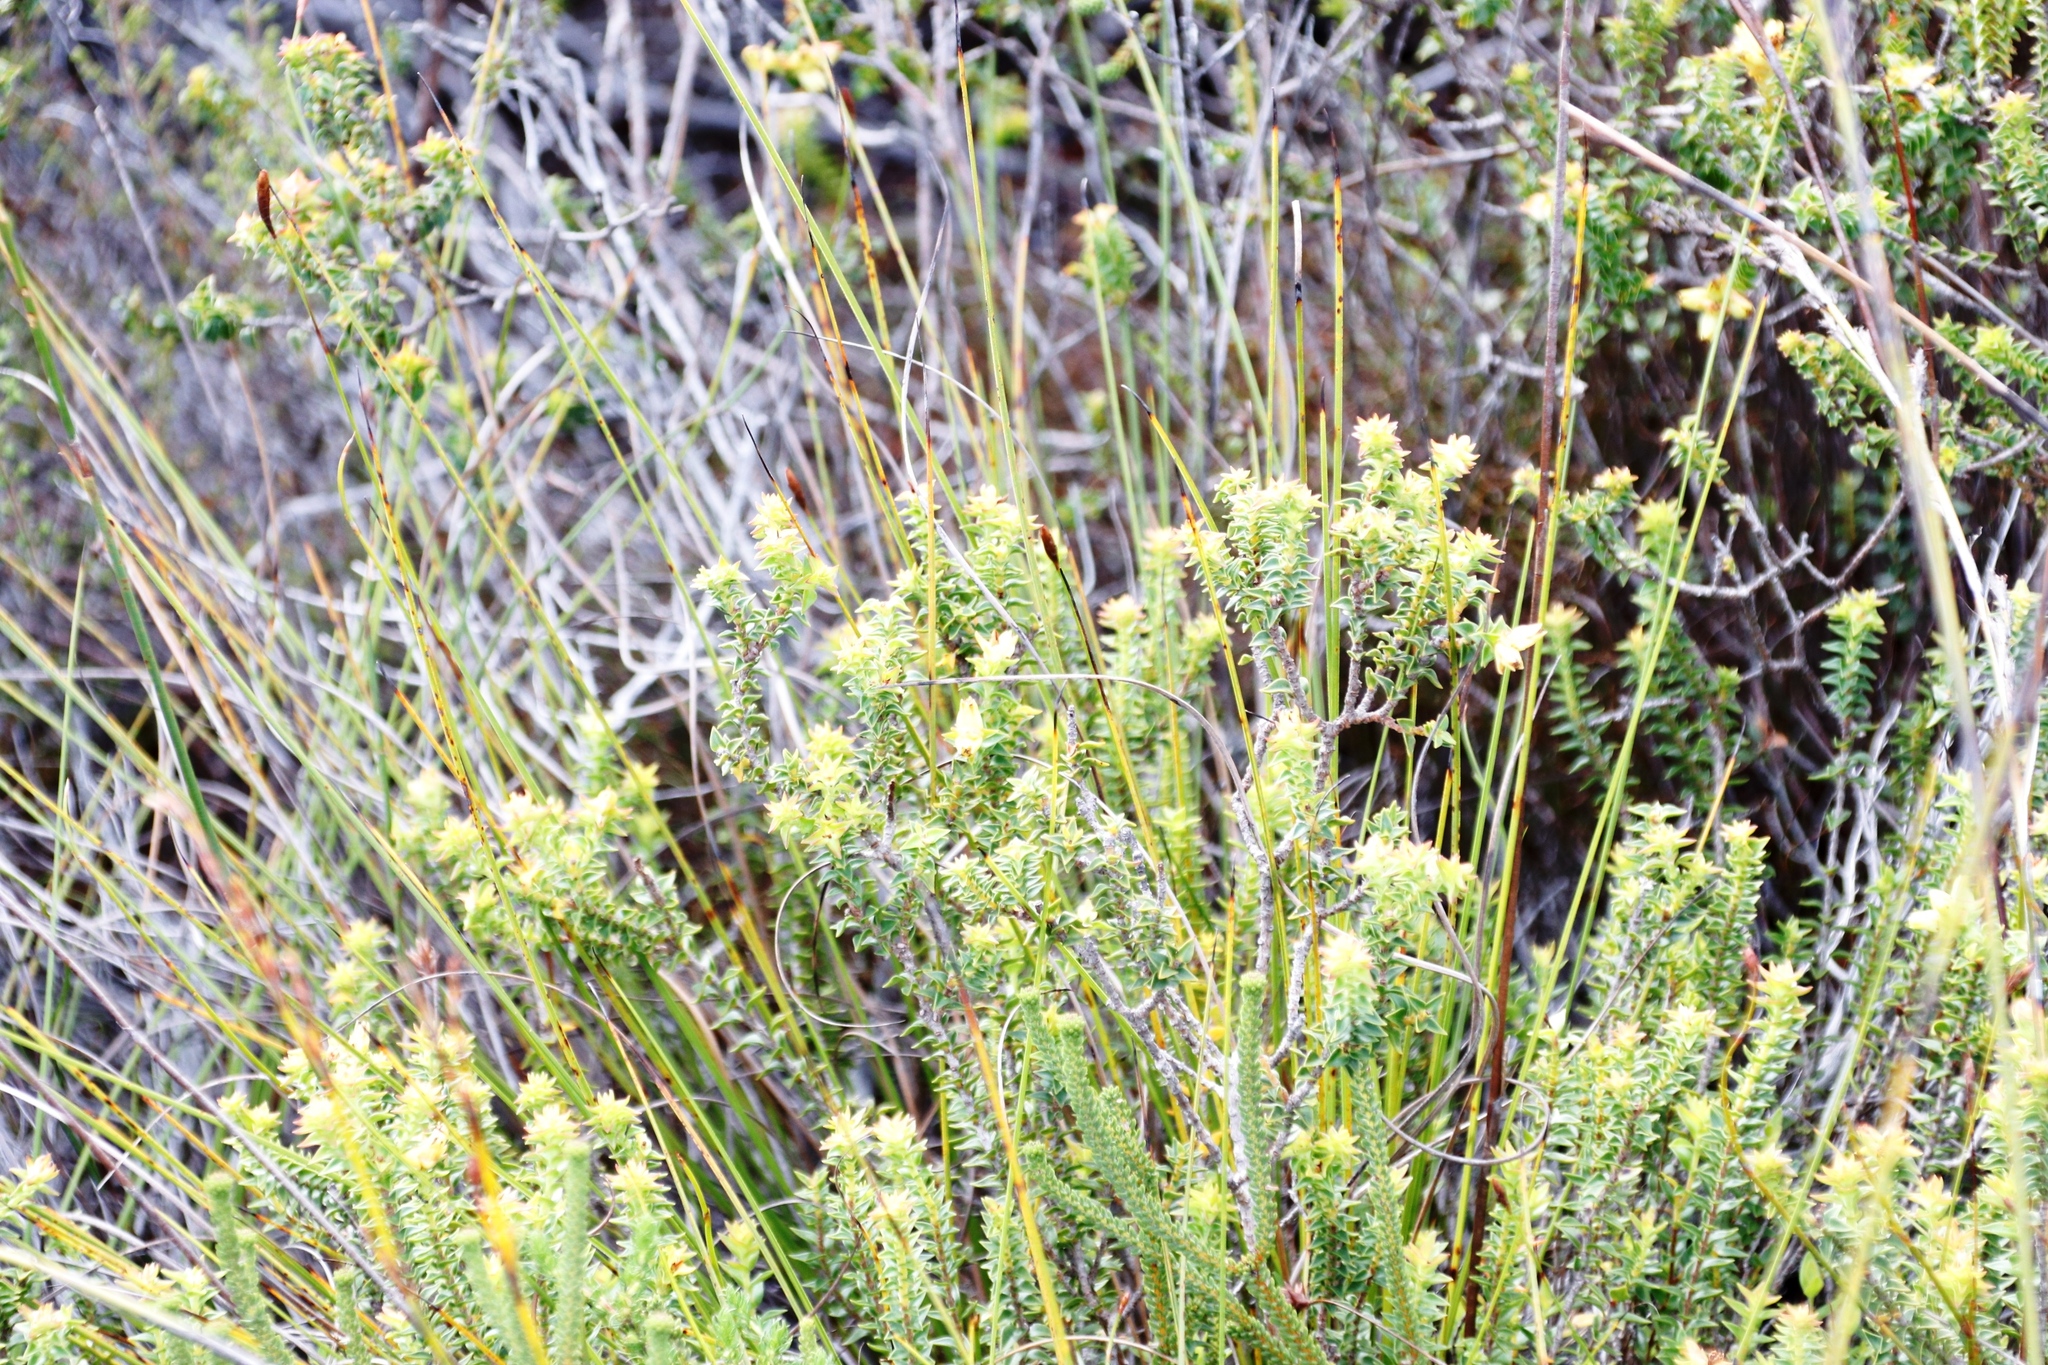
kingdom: Plantae
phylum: Tracheophyta
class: Magnoliopsida
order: Myrtales
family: Penaeaceae
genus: Penaea
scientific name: Penaea mucronata
